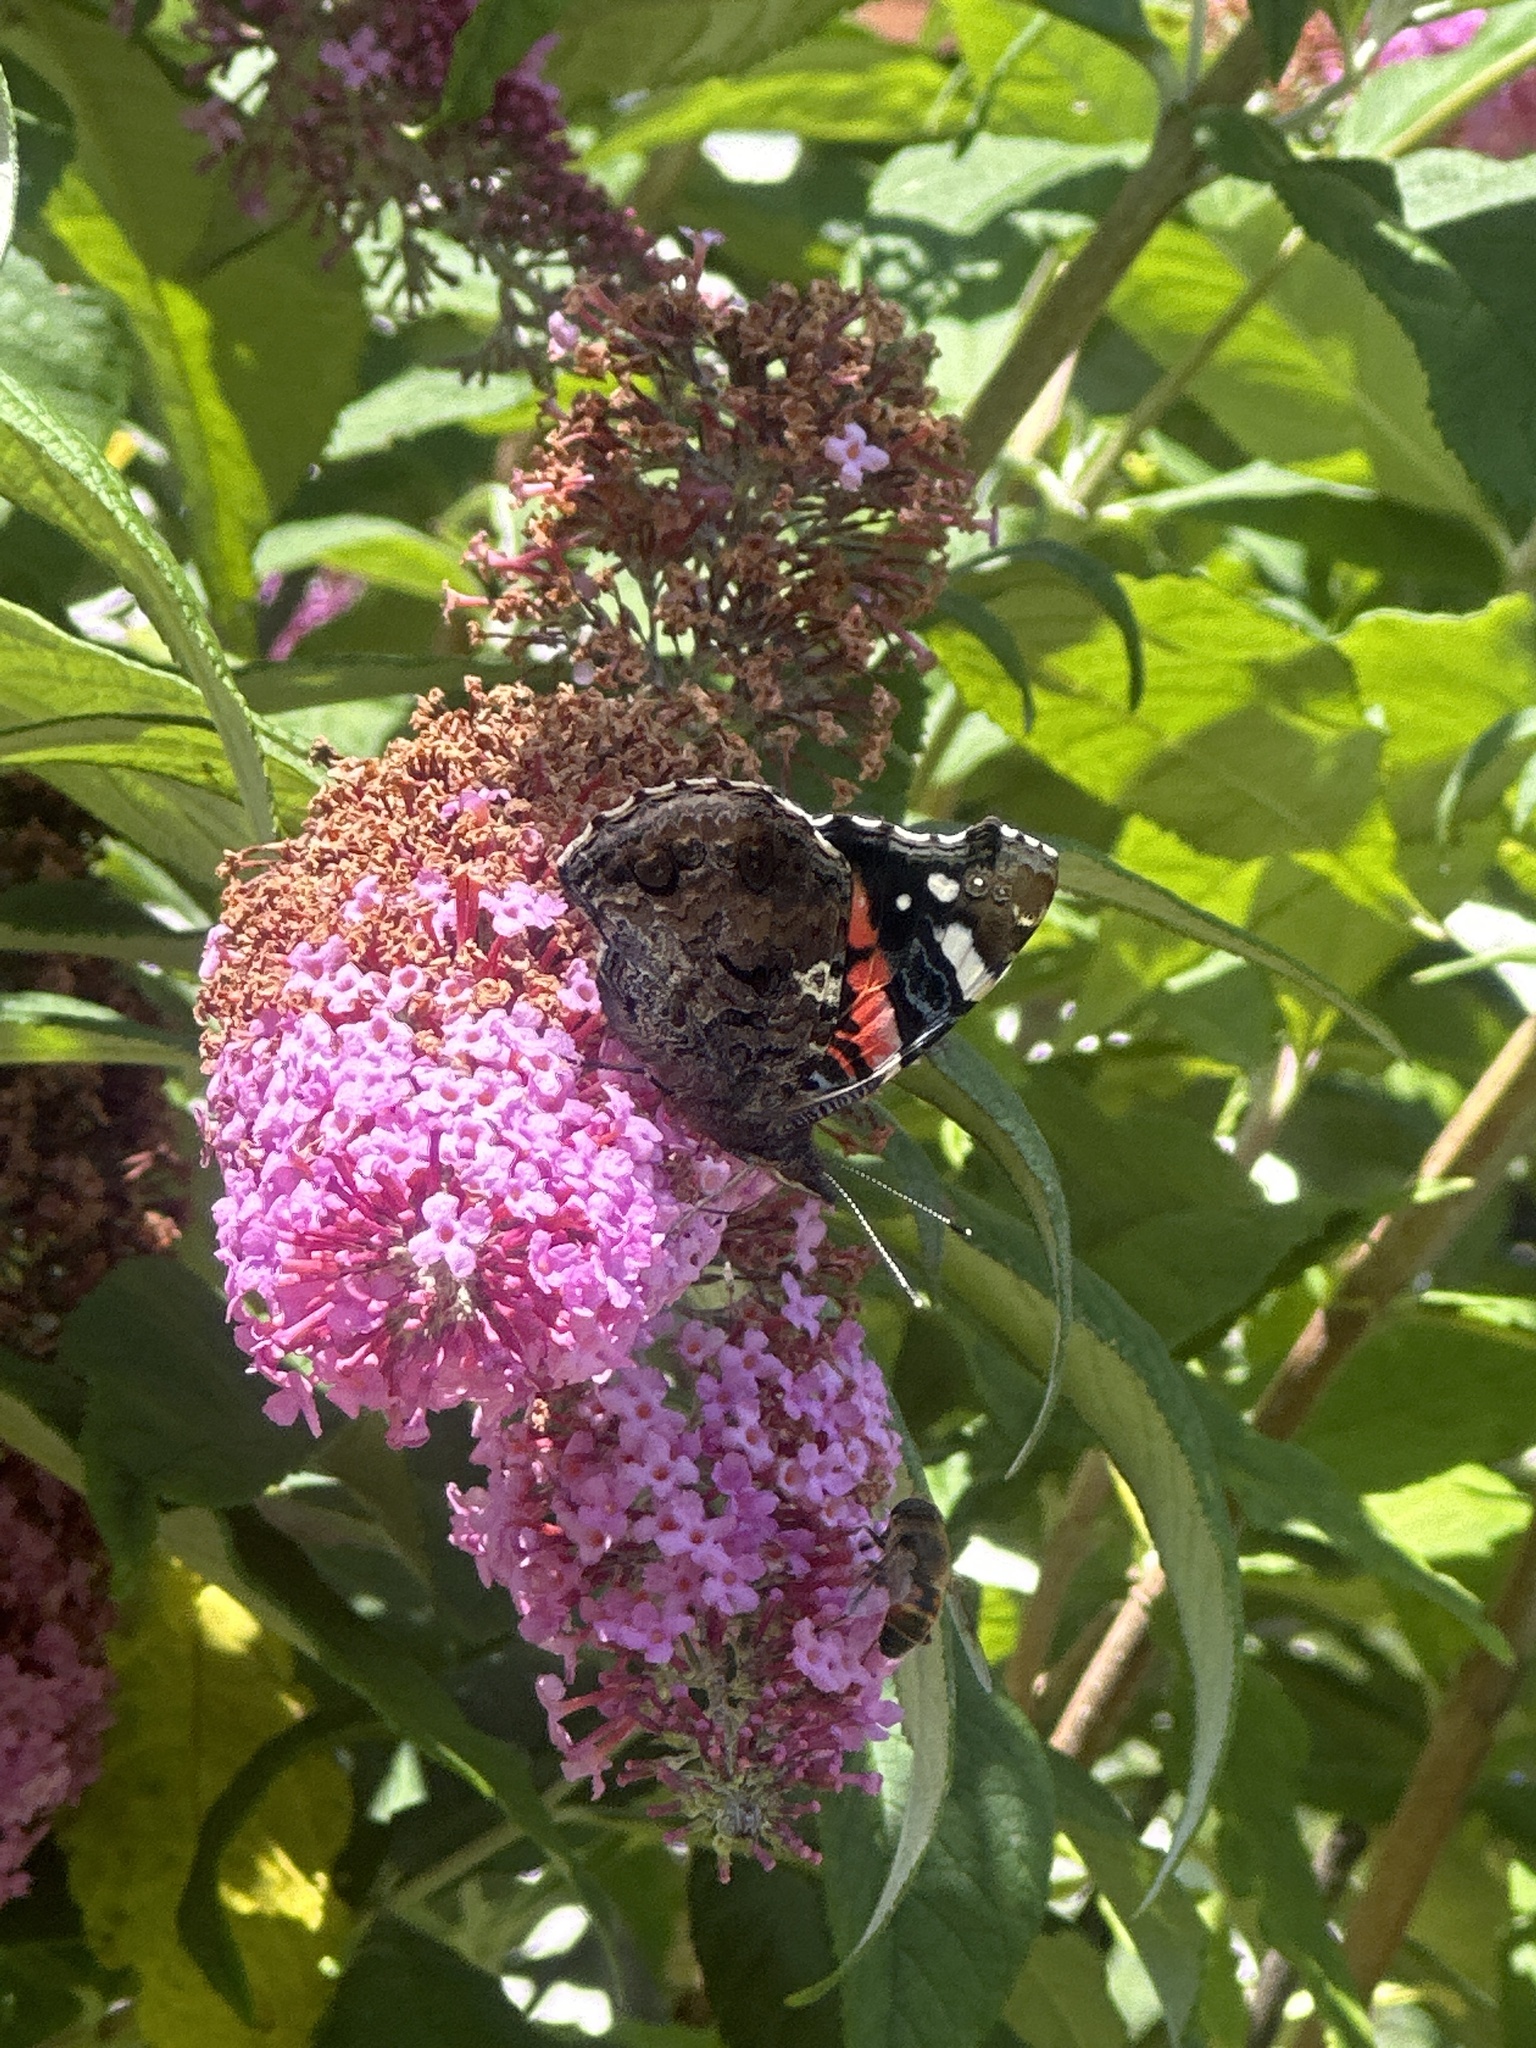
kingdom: Animalia
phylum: Arthropoda
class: Insecta
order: Lepidoptera
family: Nymphalidae
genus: Vanessa
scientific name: Vanessa atalanta
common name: Red admiral
